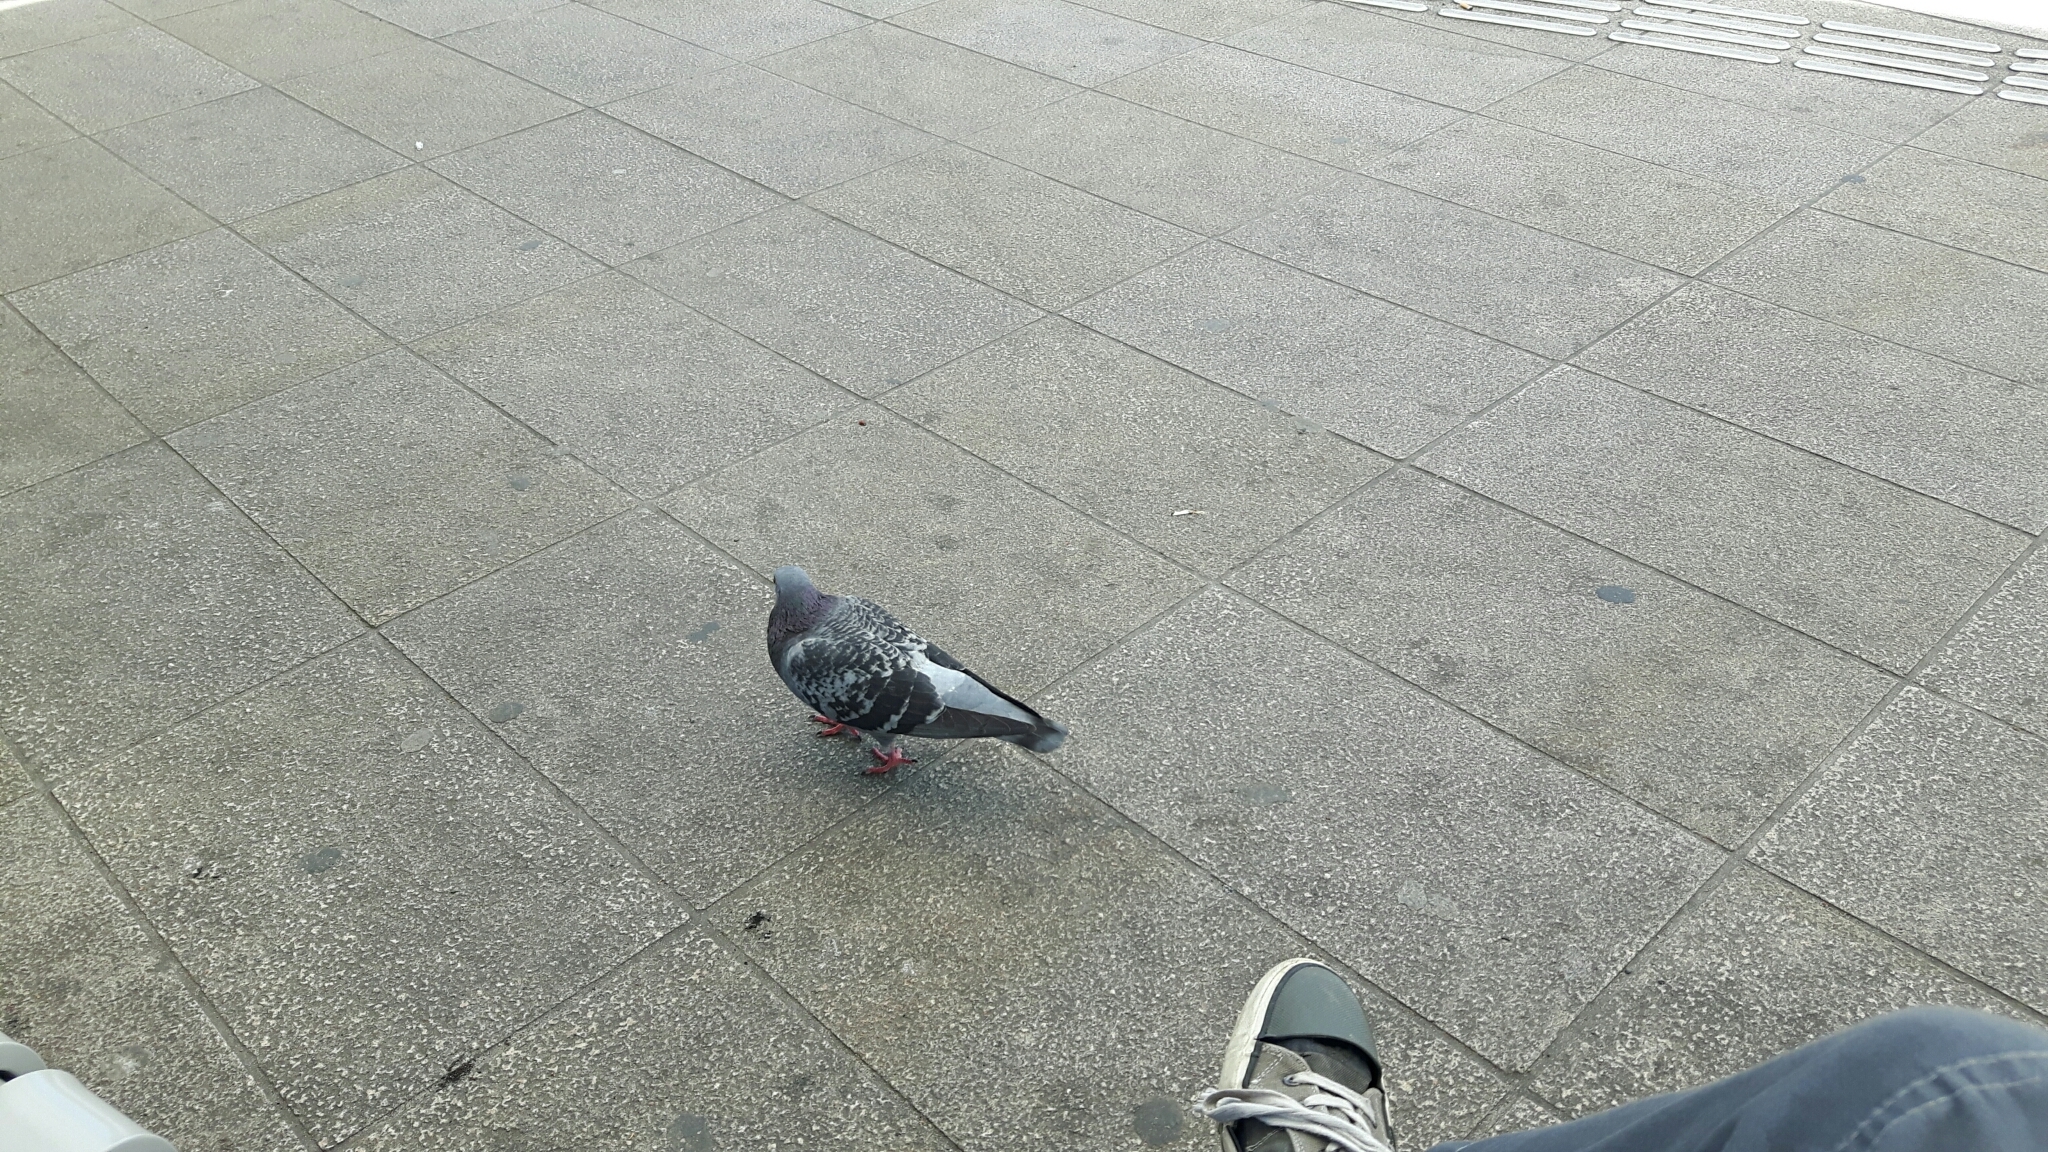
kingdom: Animalia
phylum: Chordata
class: Aves
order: Columbiformes
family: Columbidae
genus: Columba
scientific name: Columba livia
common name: Rock pigeon
